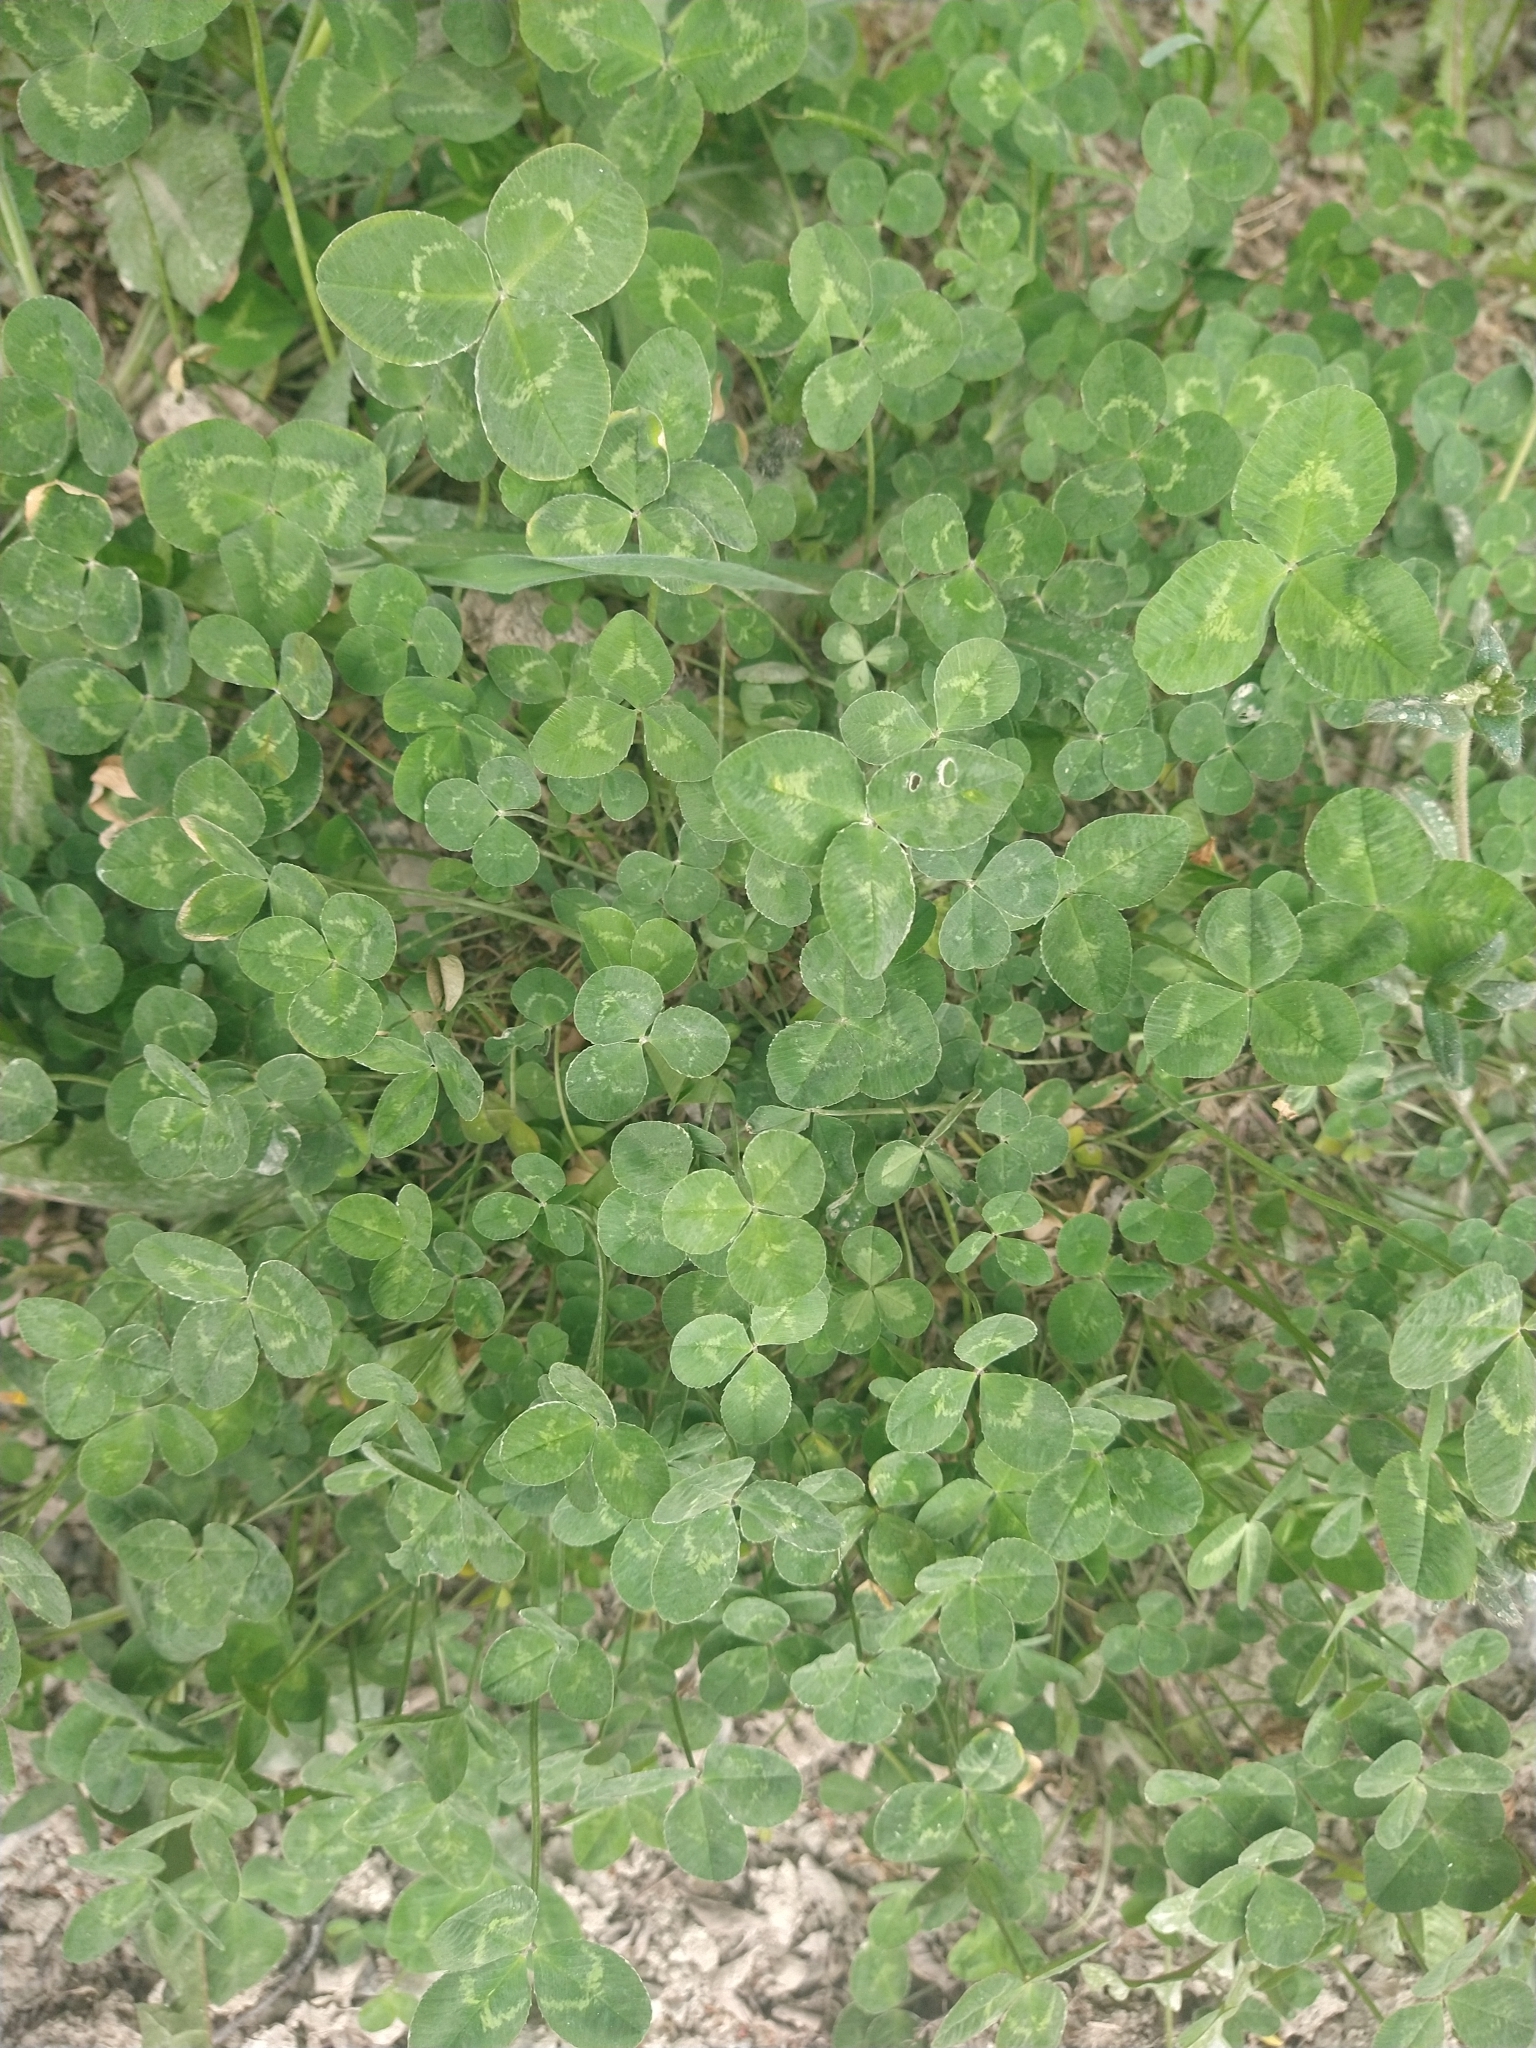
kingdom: Plantae
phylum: Tracheophyta
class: Magnoliopsida
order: Fabales
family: Fabaceae
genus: Trifolium
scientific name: Trifolium repens
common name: White clover
